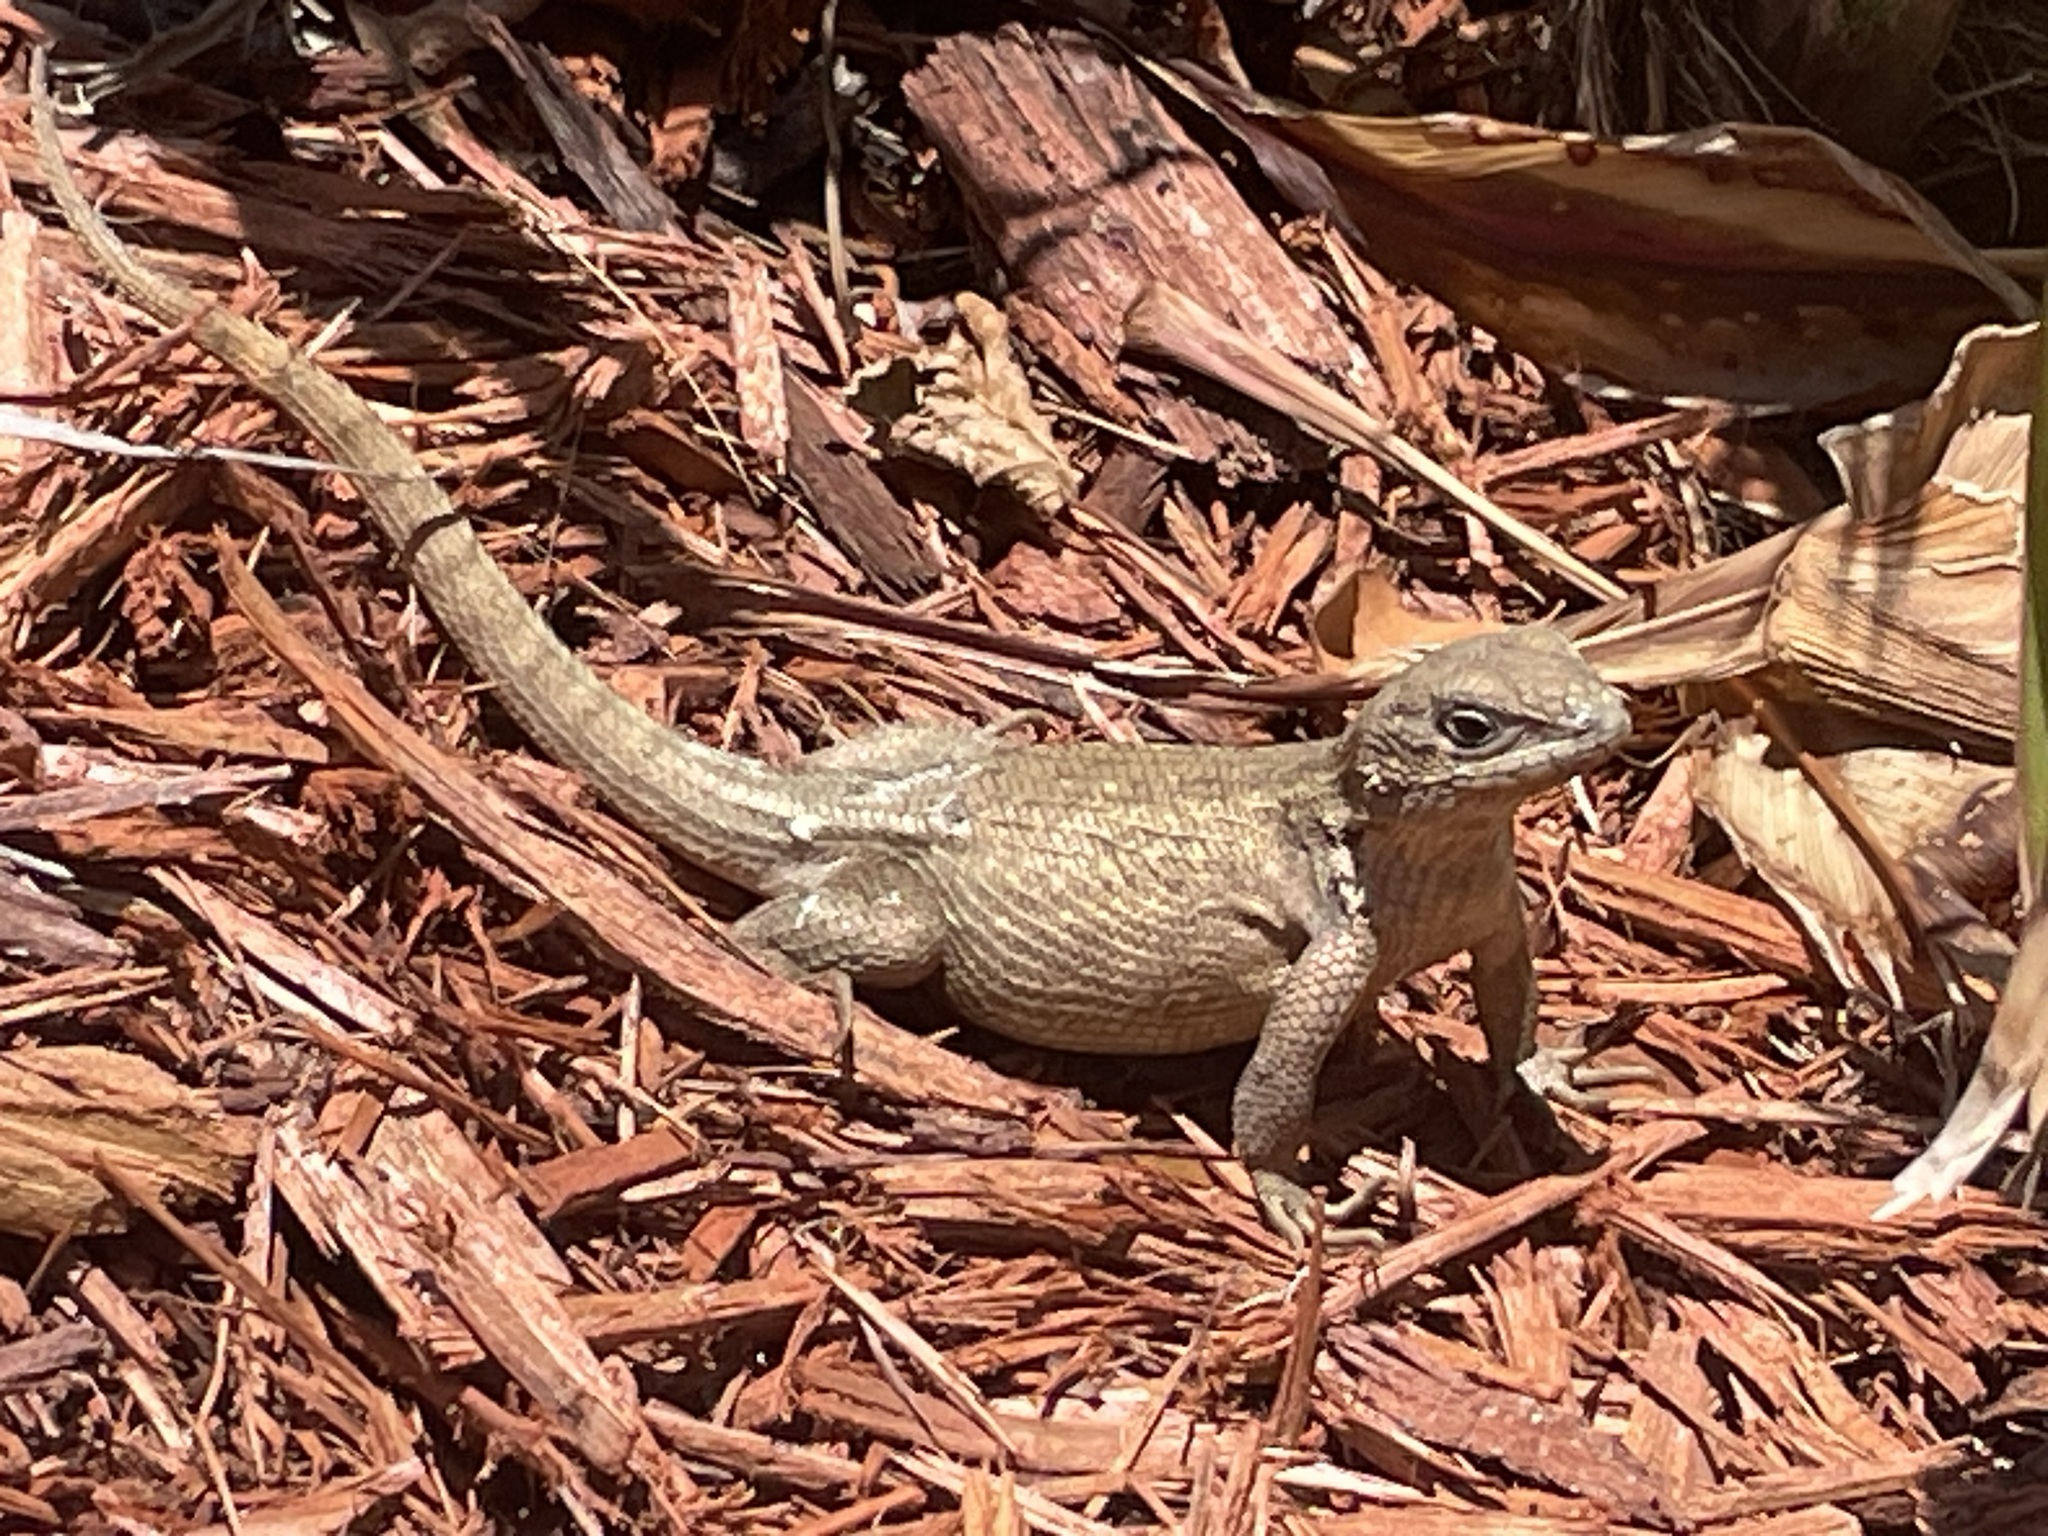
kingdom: Animalia
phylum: Chordata
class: Squamata
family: Leiocephalidae
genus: Leiocephalus
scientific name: Leiocephalus carinatus
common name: Northern curly-tailed lizard
